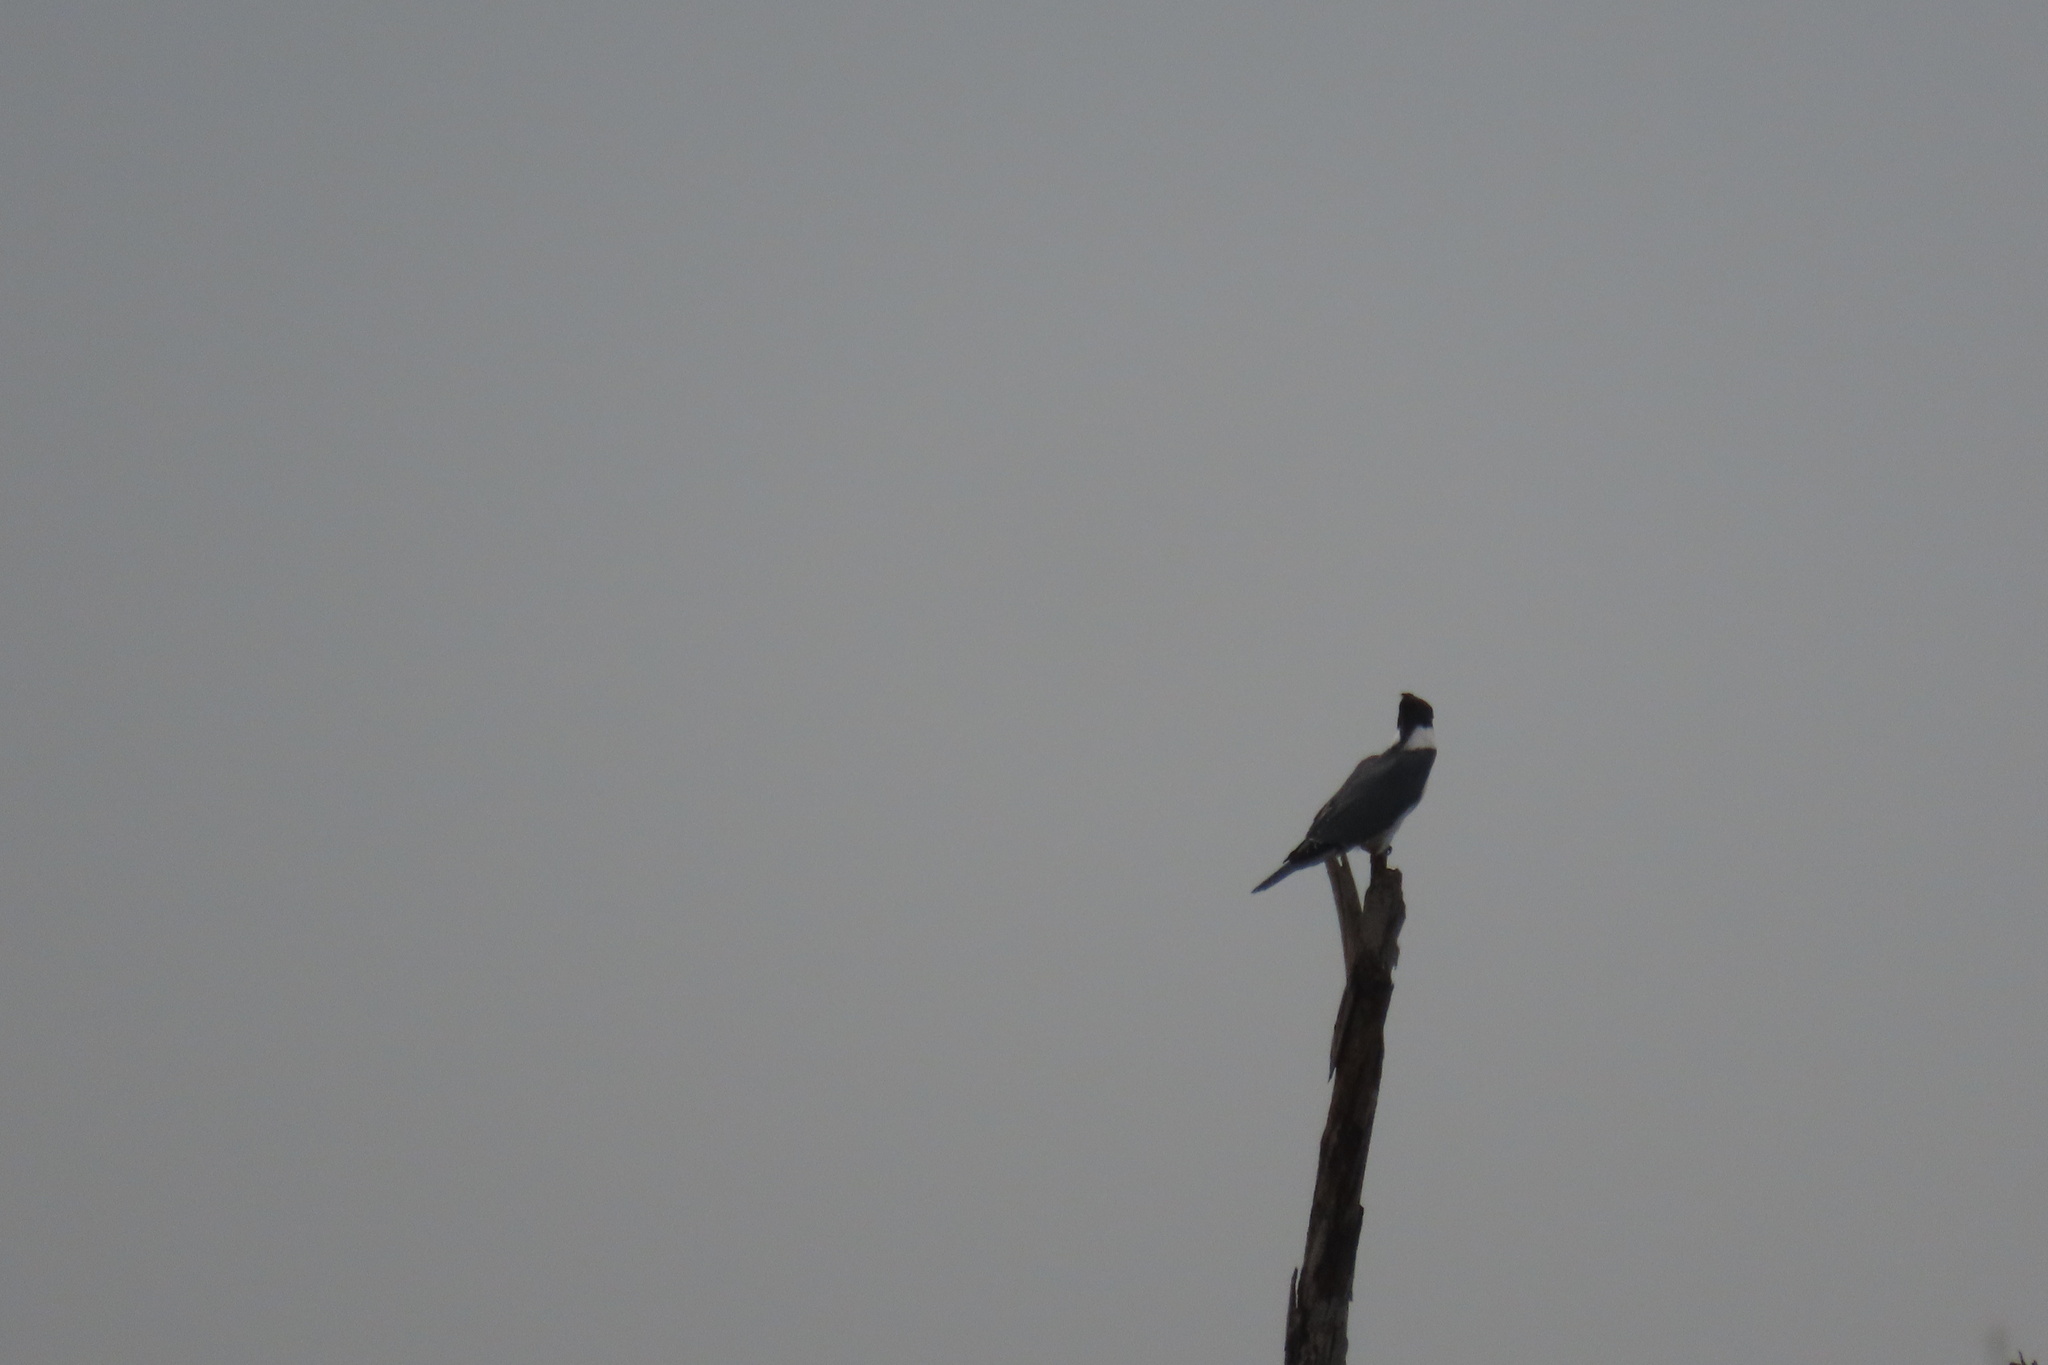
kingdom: Animalia
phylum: Chordata
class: Aves
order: Coraciiformes
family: Alcedinidae
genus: Megaceryle
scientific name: Megaceryle alcyon
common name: Belted kingfisher
